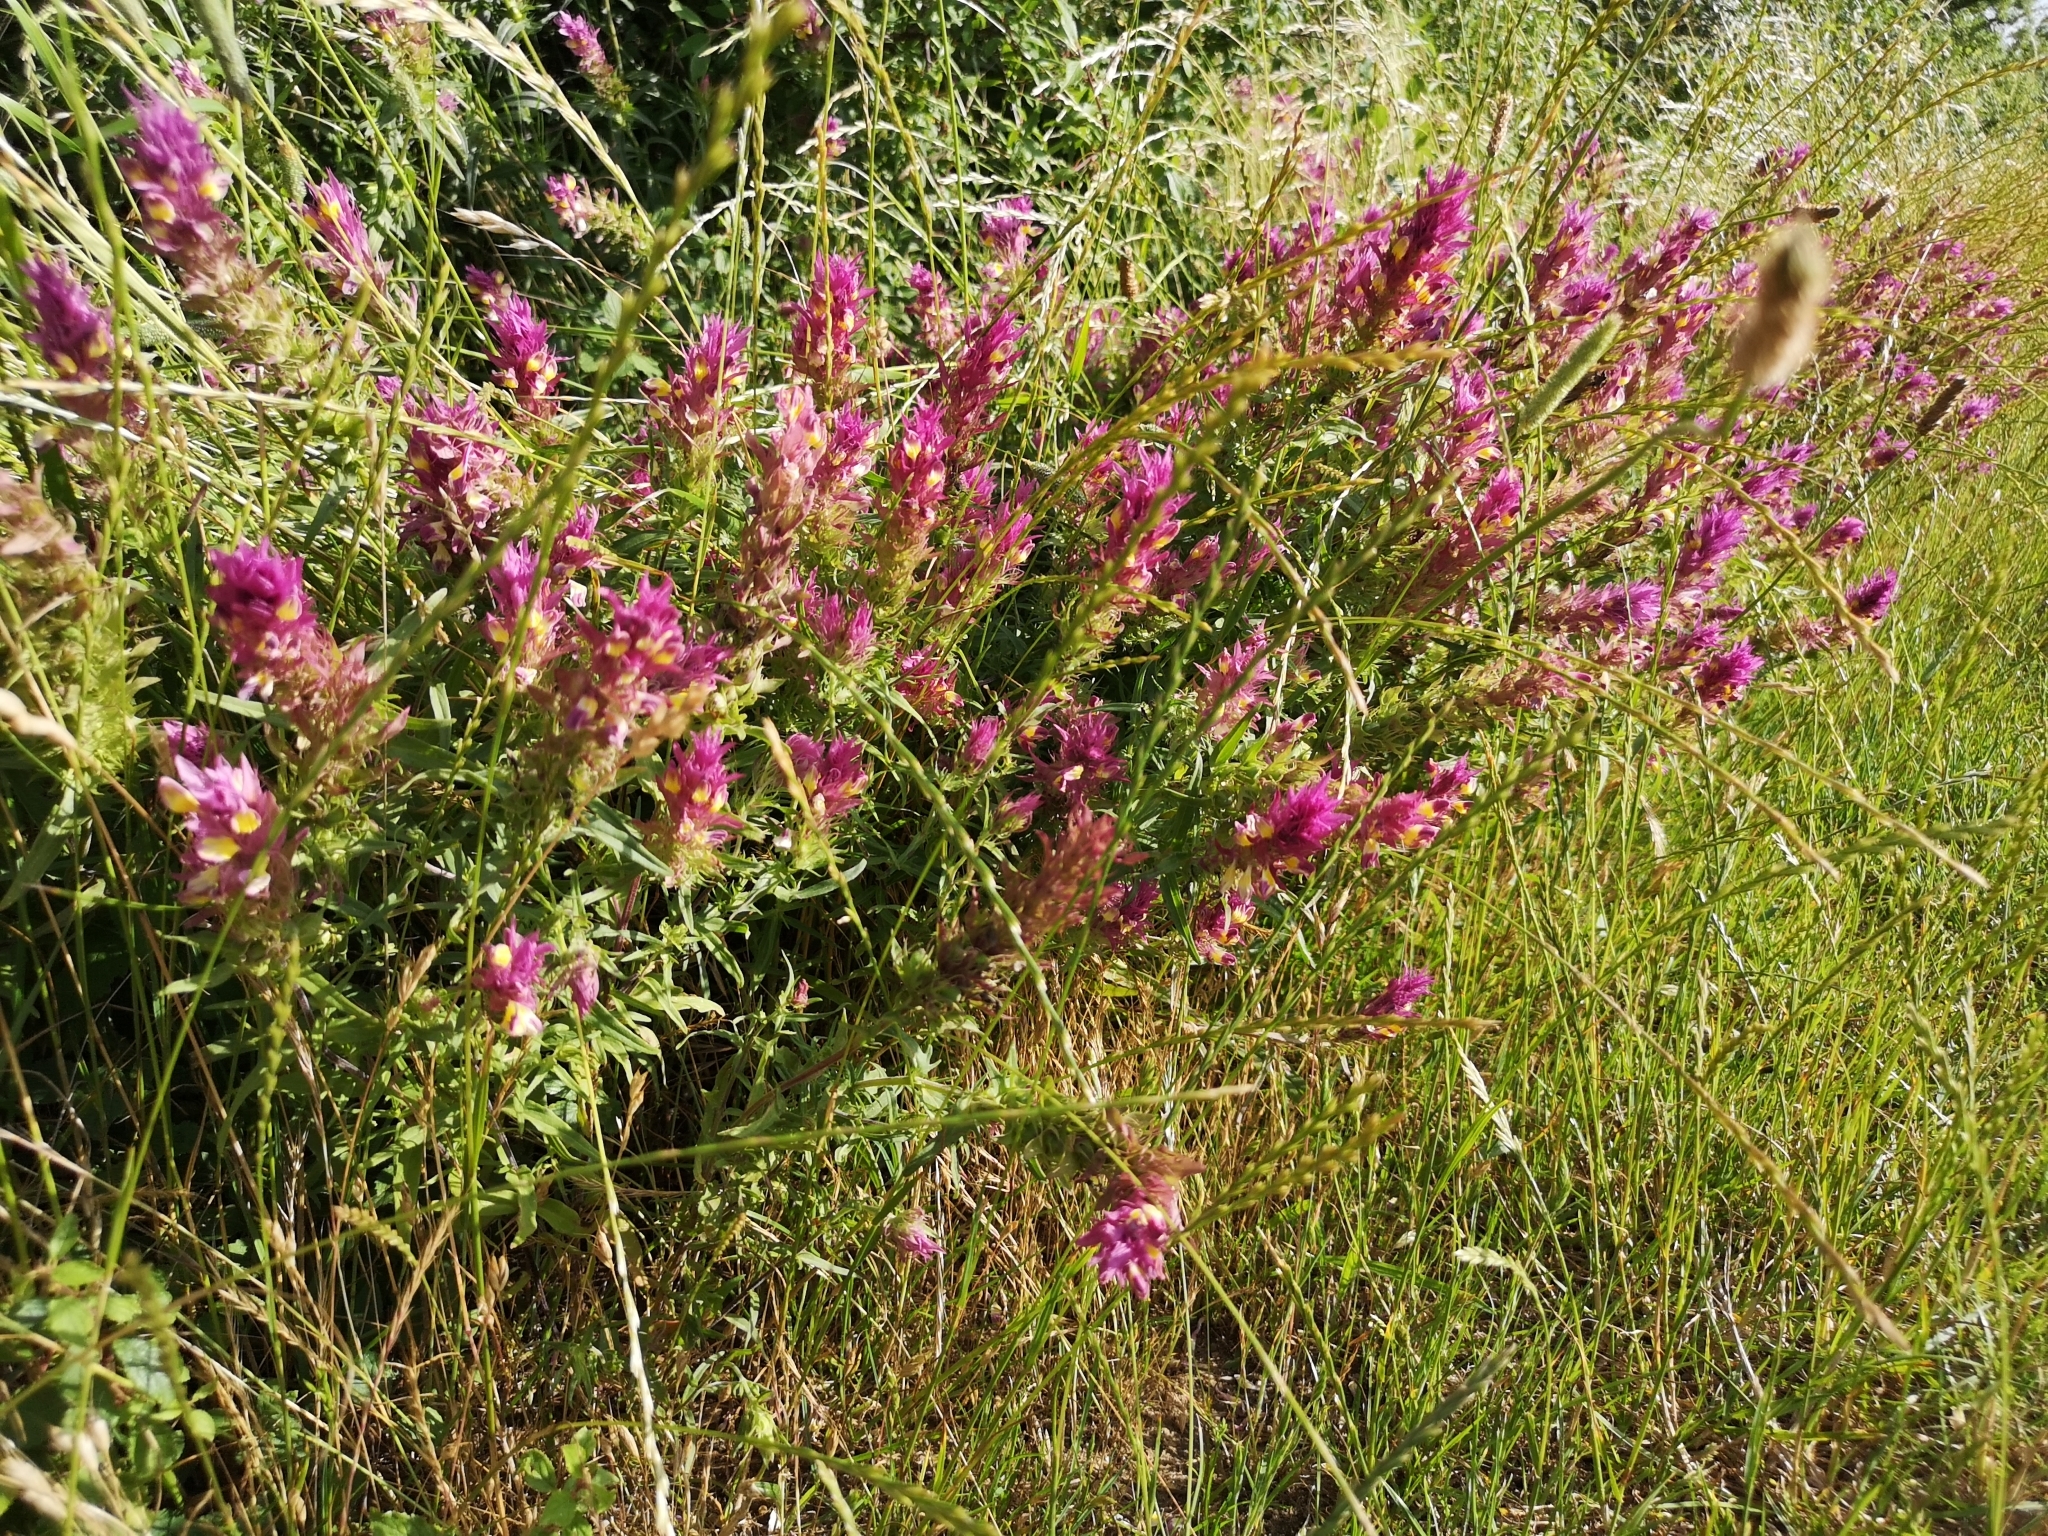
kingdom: Plantae
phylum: Tracheophyta
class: Magnoliopsida
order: Lamiales
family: Orobanchaceae
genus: Melampyrum
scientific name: Melampyrum arvense
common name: Field cow-wheat
